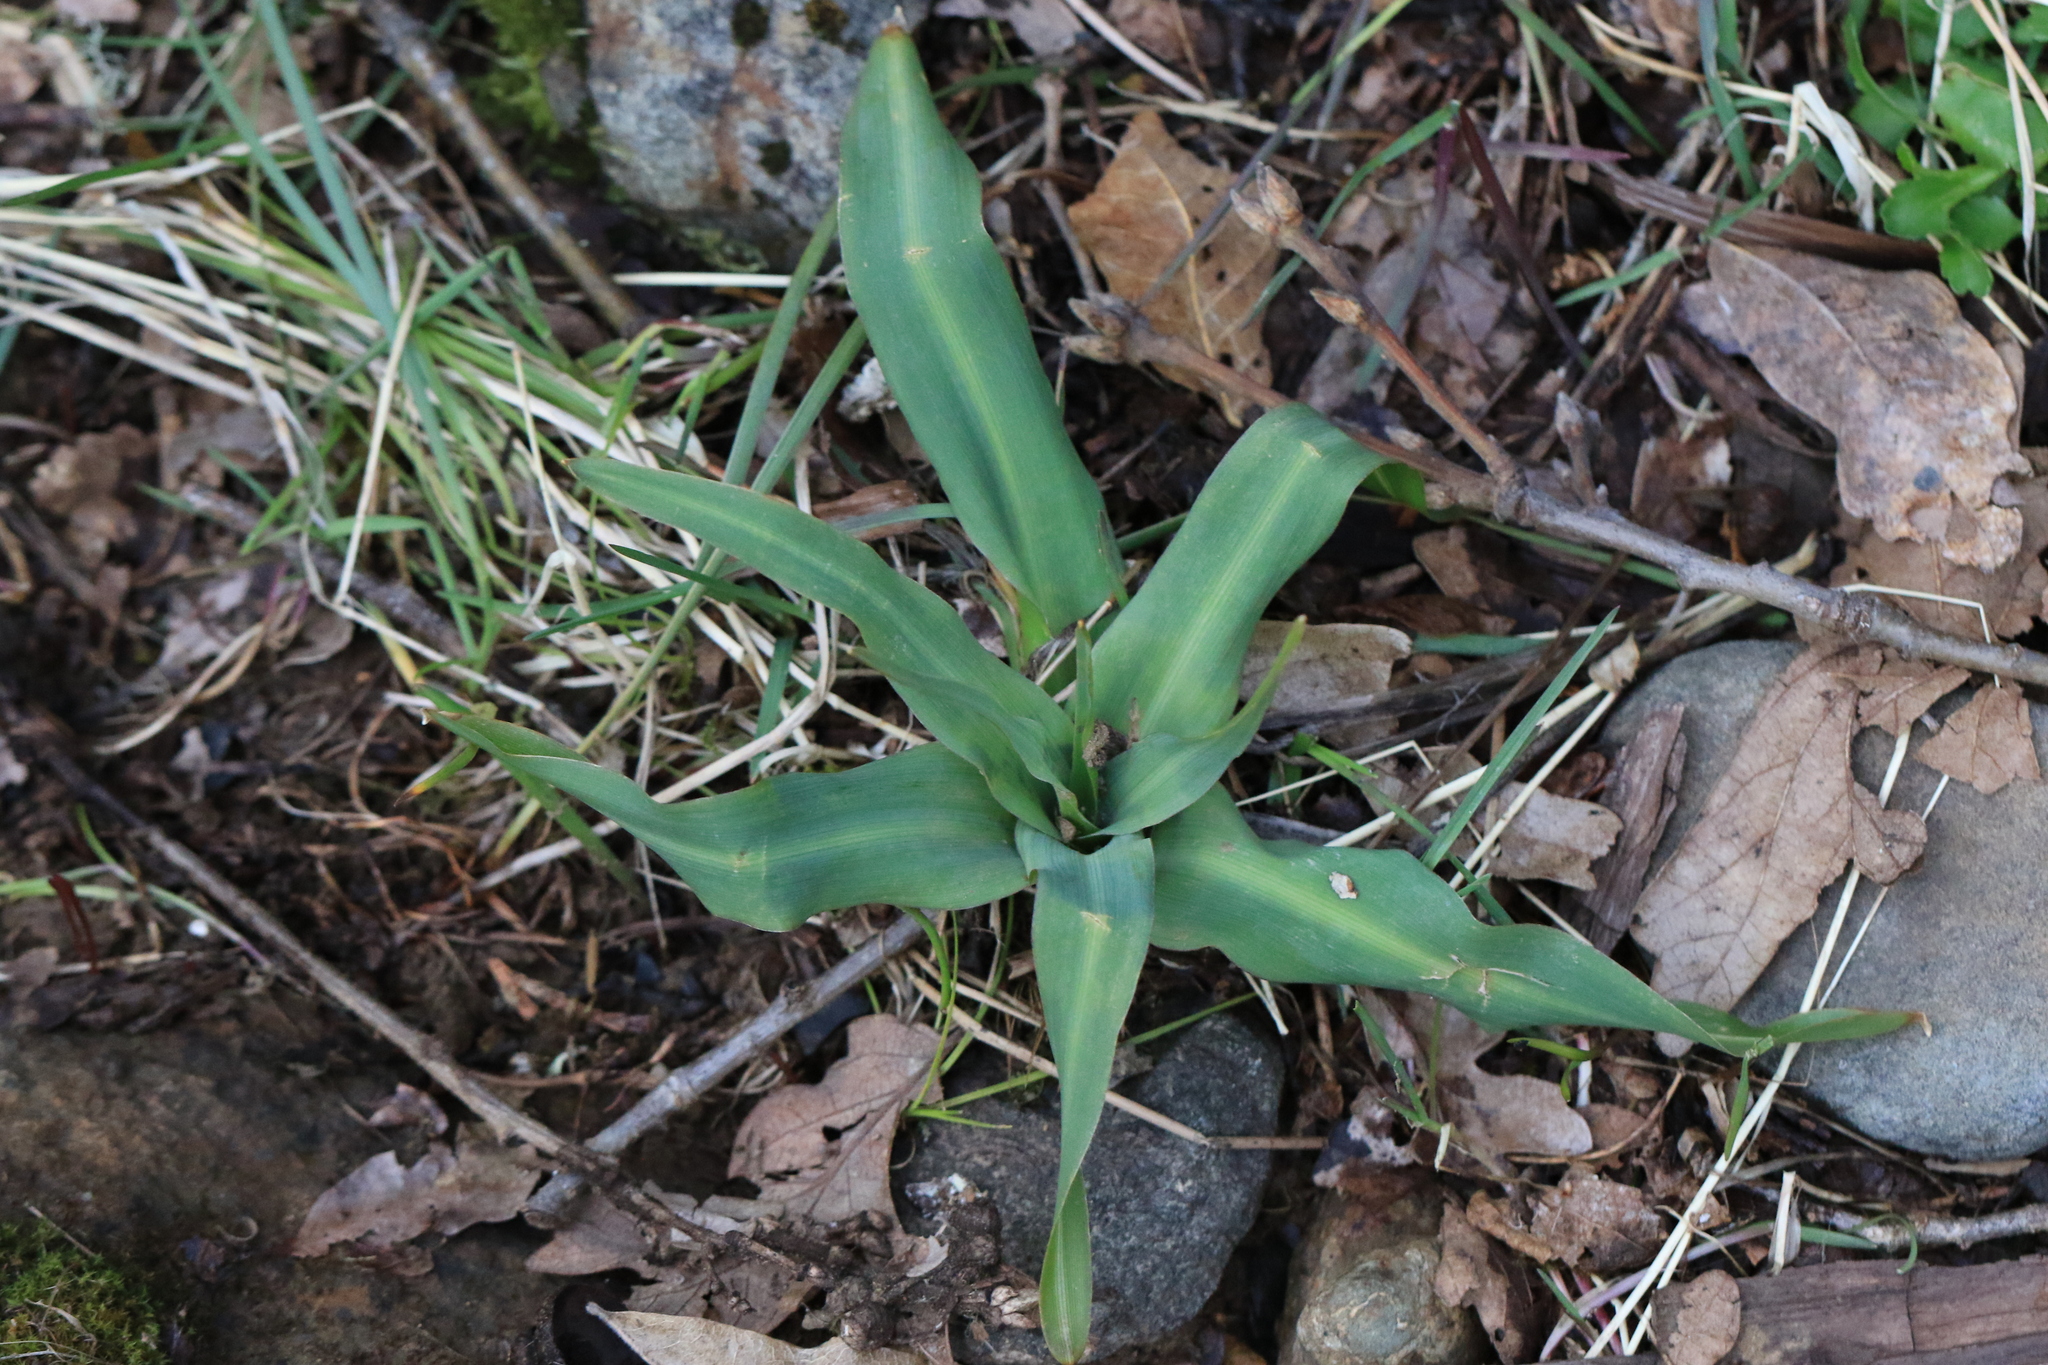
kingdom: Plantae
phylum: Tracheophyta
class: Liliopsida
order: Asparagales
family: Asparagaceae
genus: Chlorogalum
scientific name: Chlorogalum pomeridianum
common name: Amole
